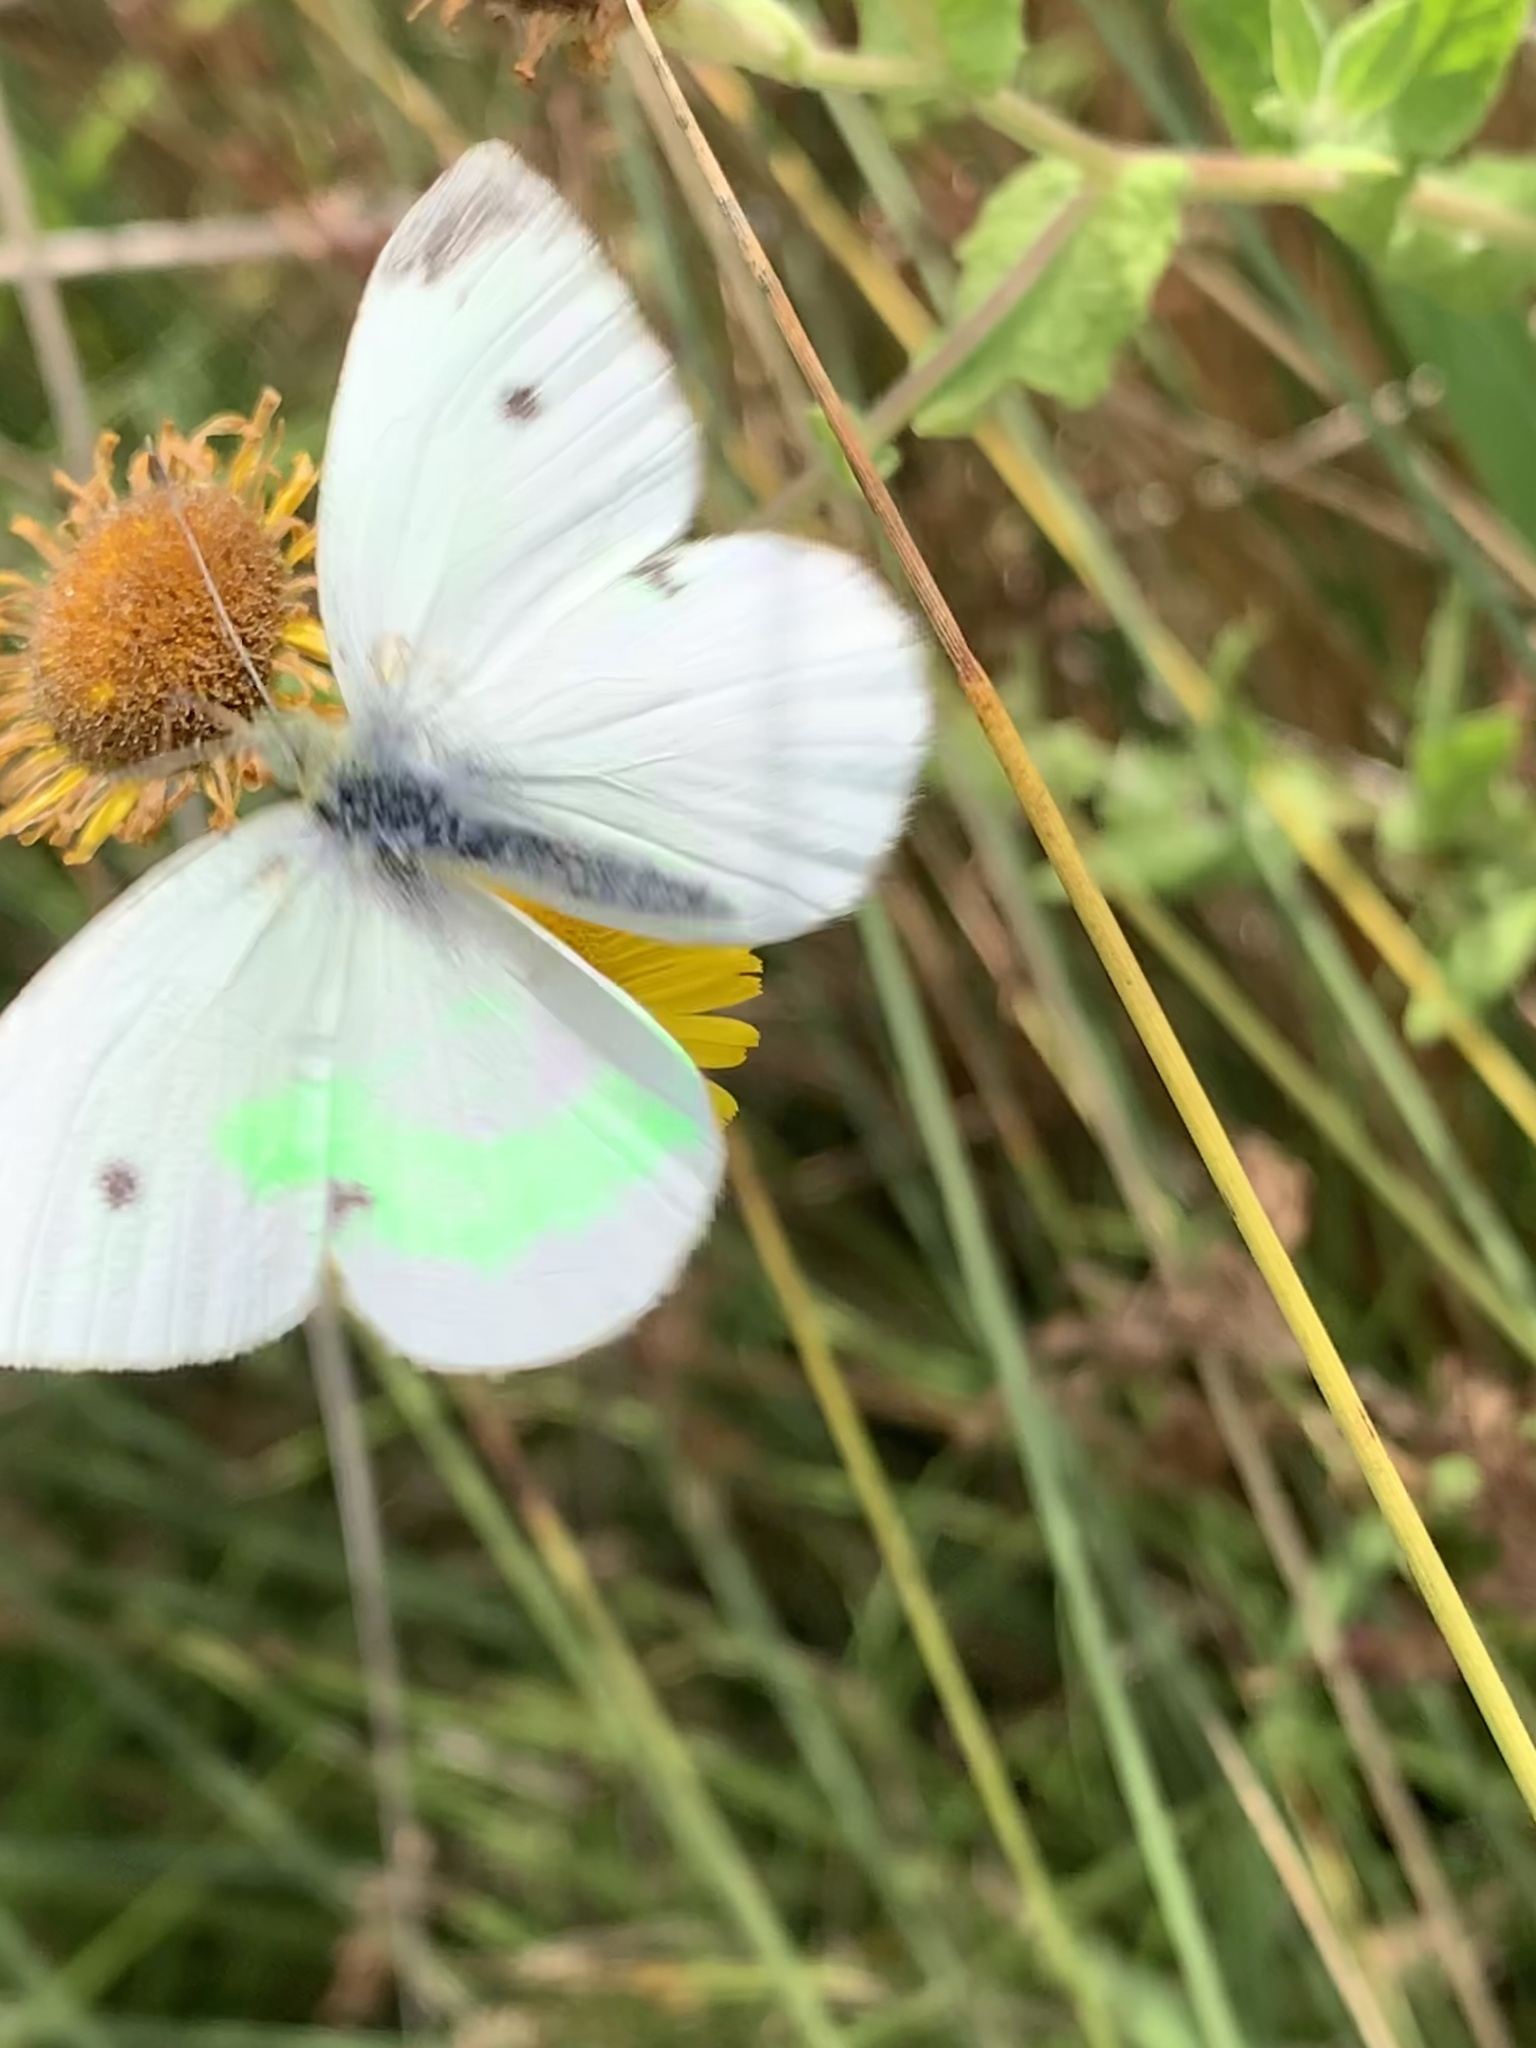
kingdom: Animalia
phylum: Arthropoda
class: Insecta
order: Lepidoptera
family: Pieridae
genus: Pieris
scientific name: Pieris rapae
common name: Small white
